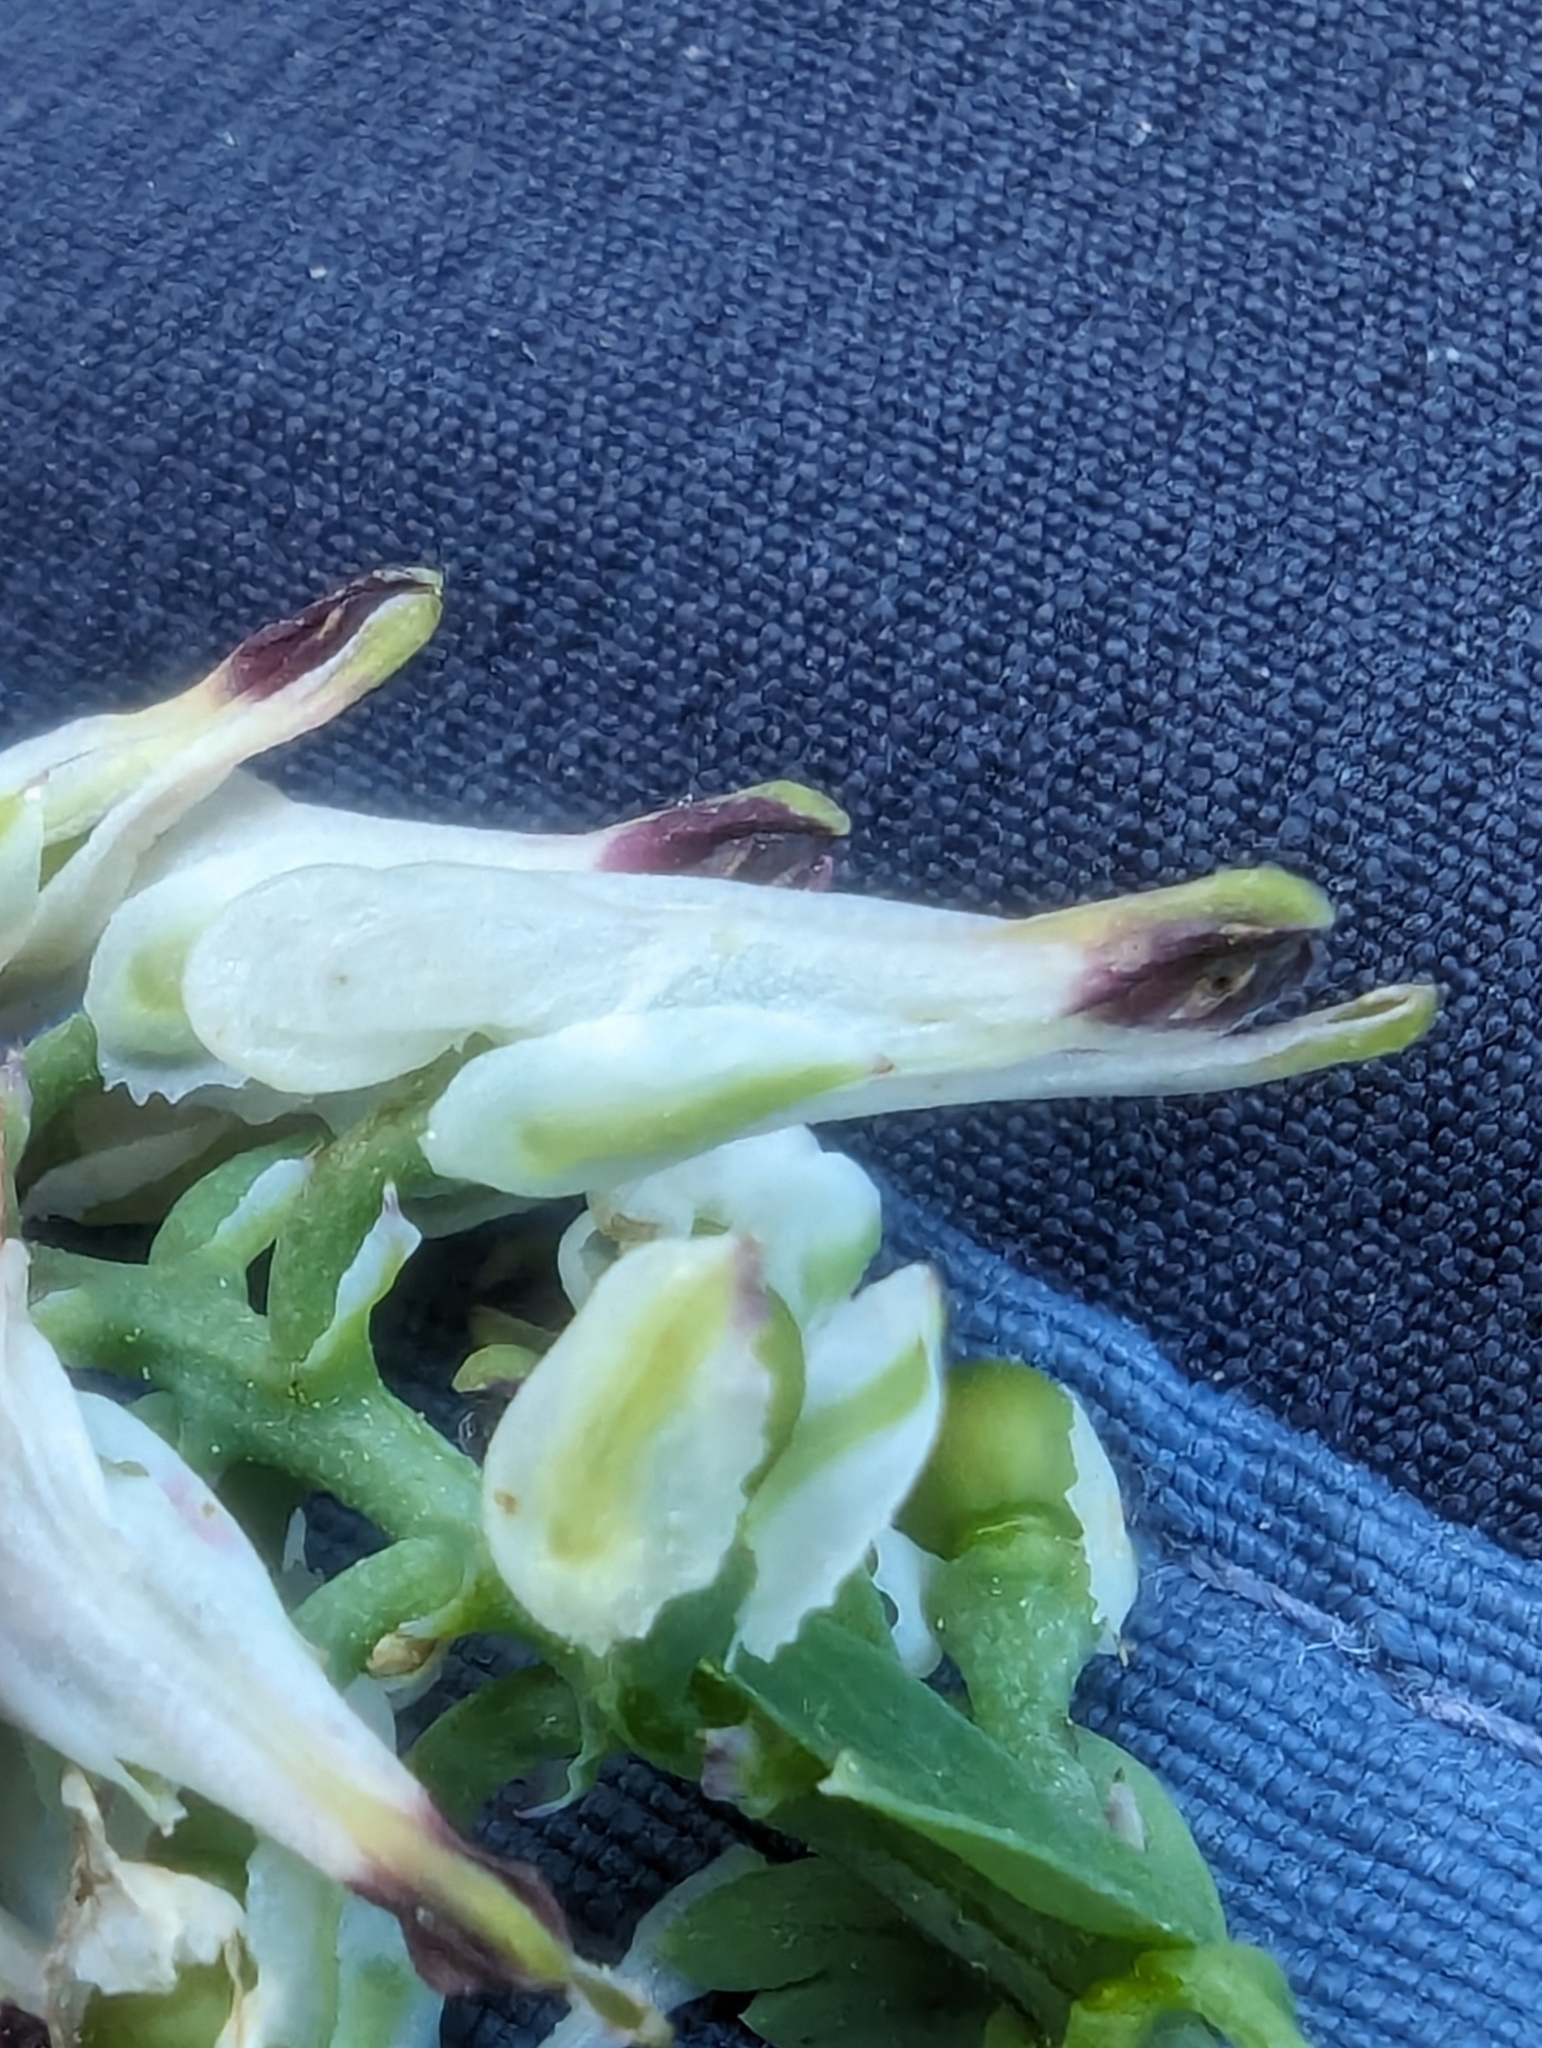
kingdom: Plantae
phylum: Tracheophyta
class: Magnoliopsida
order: Ranunculales
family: Papaveraceae
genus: Fumaria
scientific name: Fumaria capreolata
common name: White ramping-fumitory
